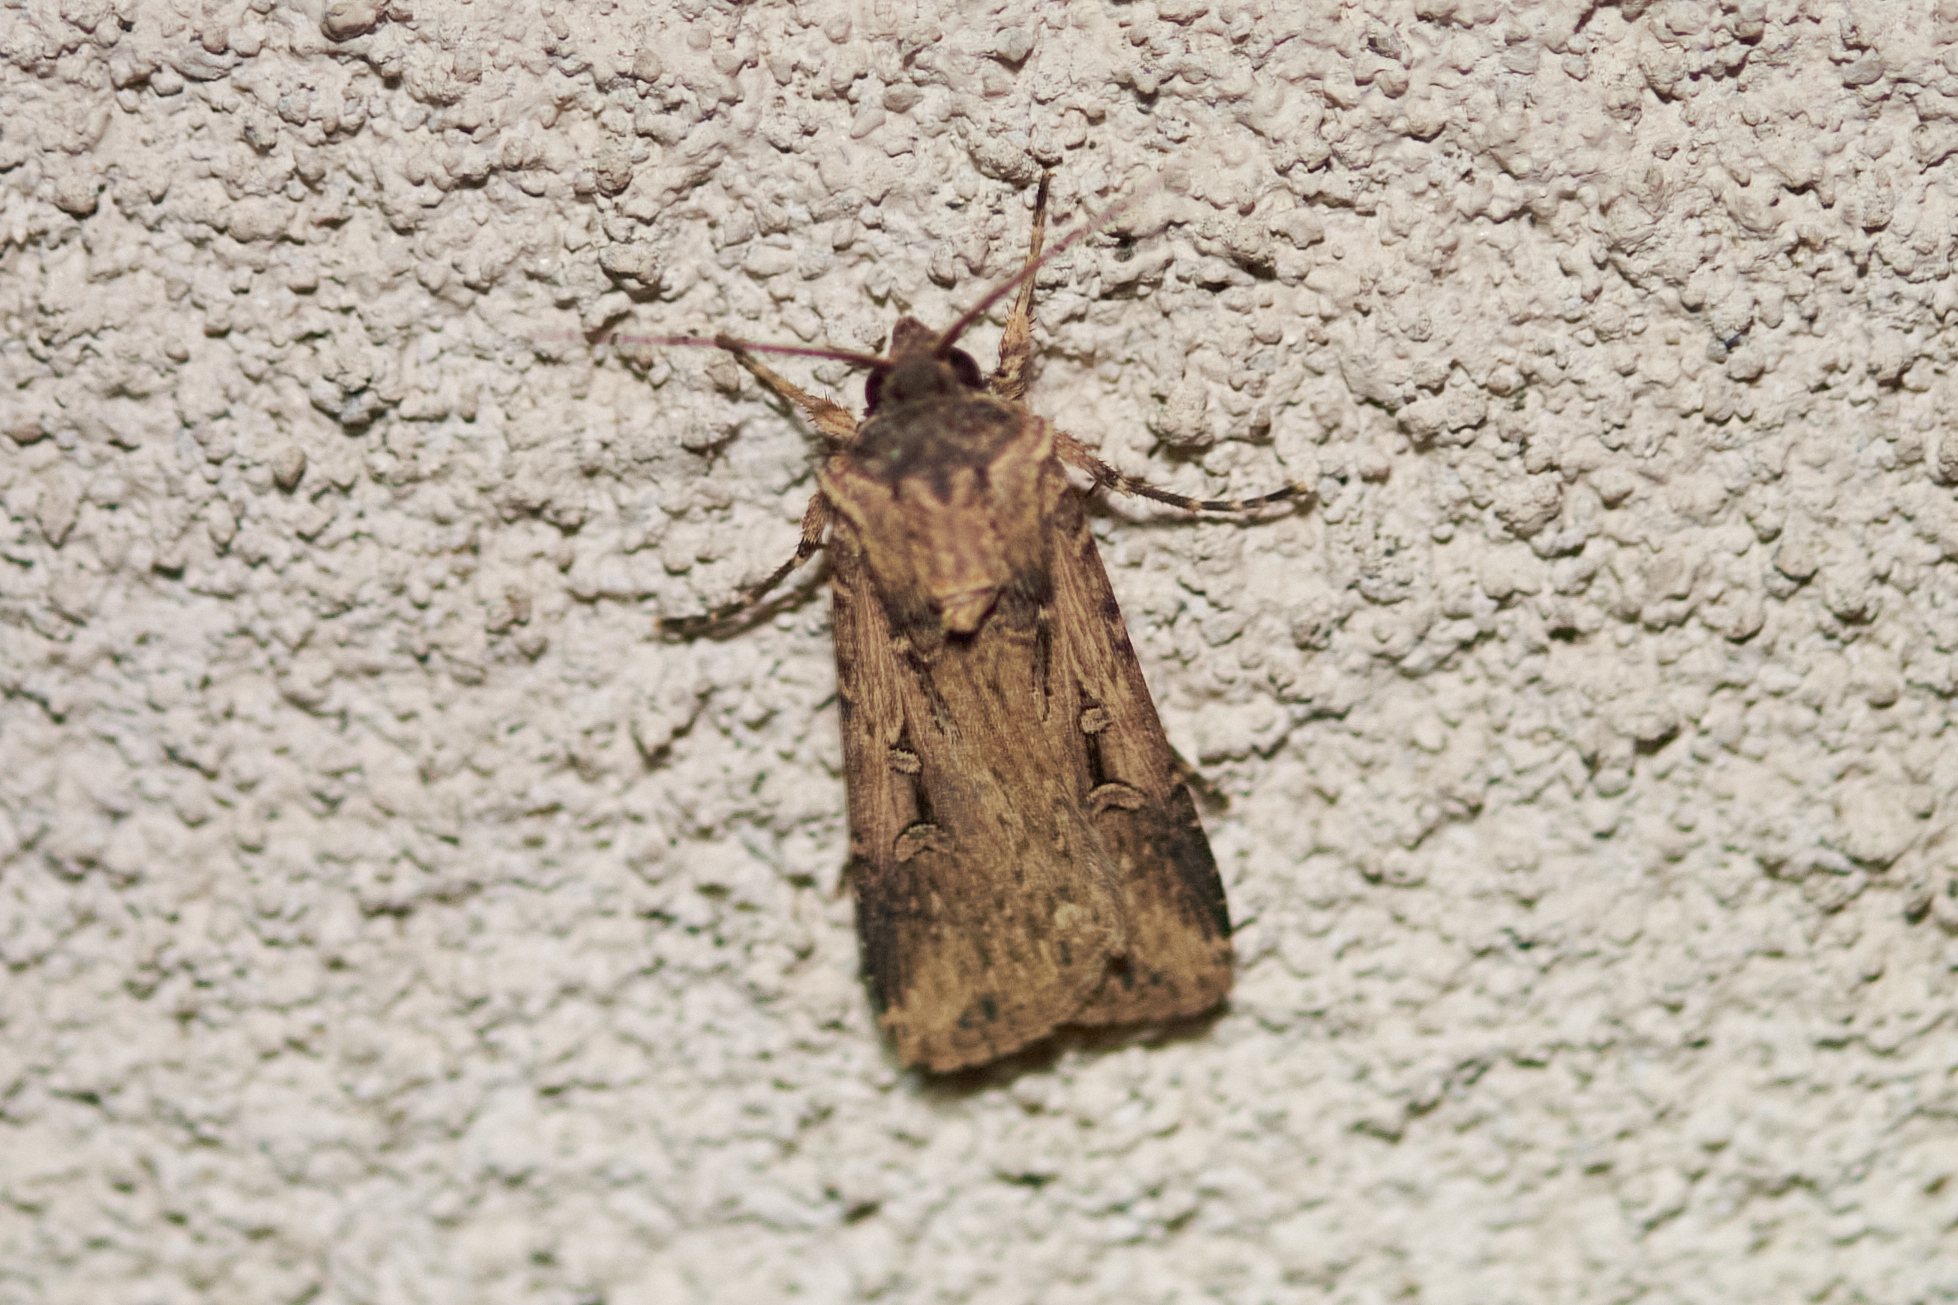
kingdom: Animalia
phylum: Arthropoda
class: Insecta
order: Lepidoptera
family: Noctuidae
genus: Feltia
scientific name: Feltia subterranea
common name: Granulate cutworm
